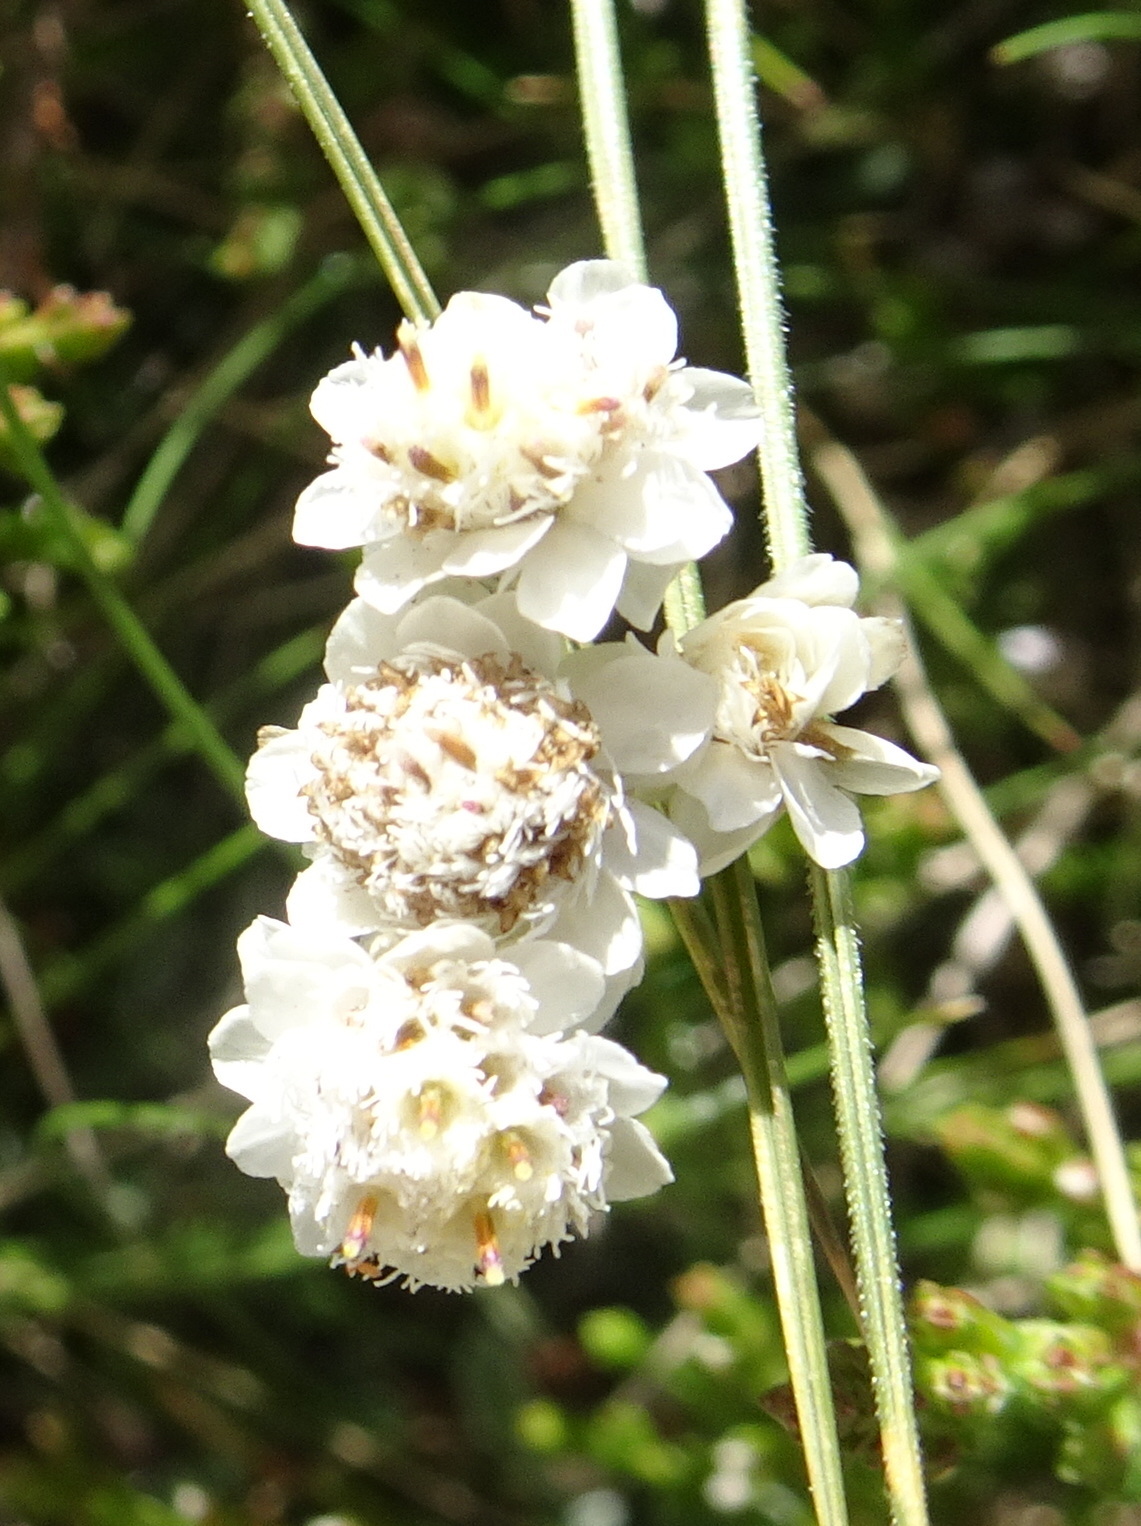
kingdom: Plantae
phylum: Tracheophyta
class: Magnoliopsida
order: Asterales
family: Asteraceae
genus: Antennaria
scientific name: Antennaria dioica
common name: Mountain everlasting
